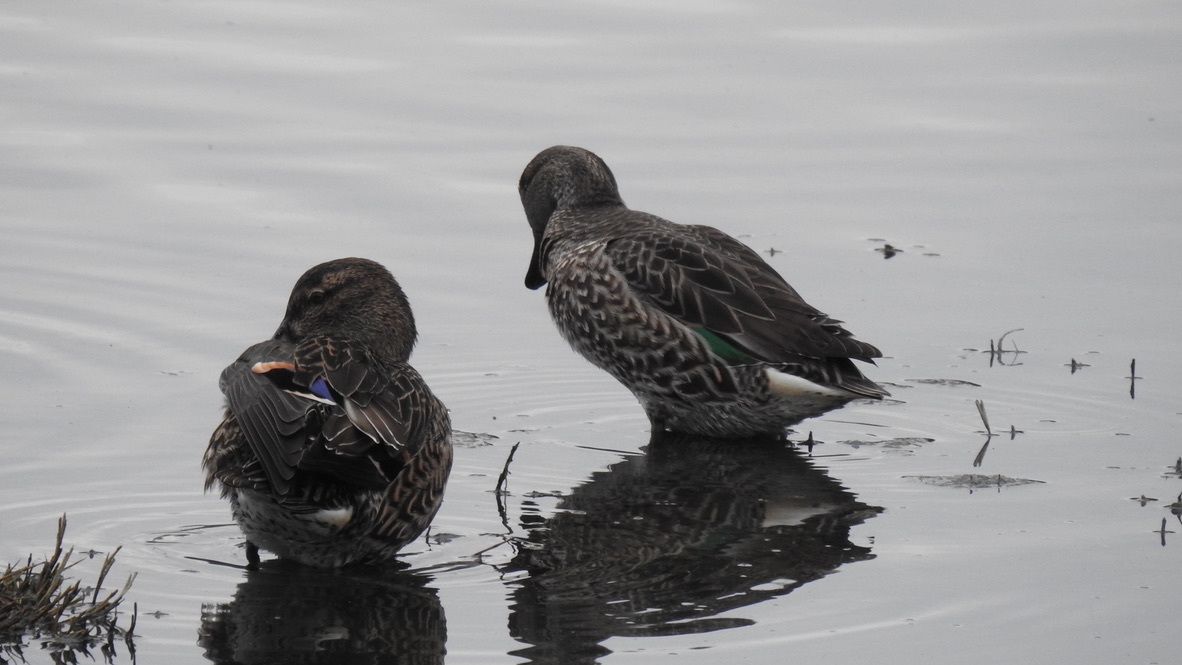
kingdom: Animalia
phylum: Chordata
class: Aves
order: Anseriformes
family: Anatidae
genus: Anas
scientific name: Anas crecca
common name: Eurasian teal
